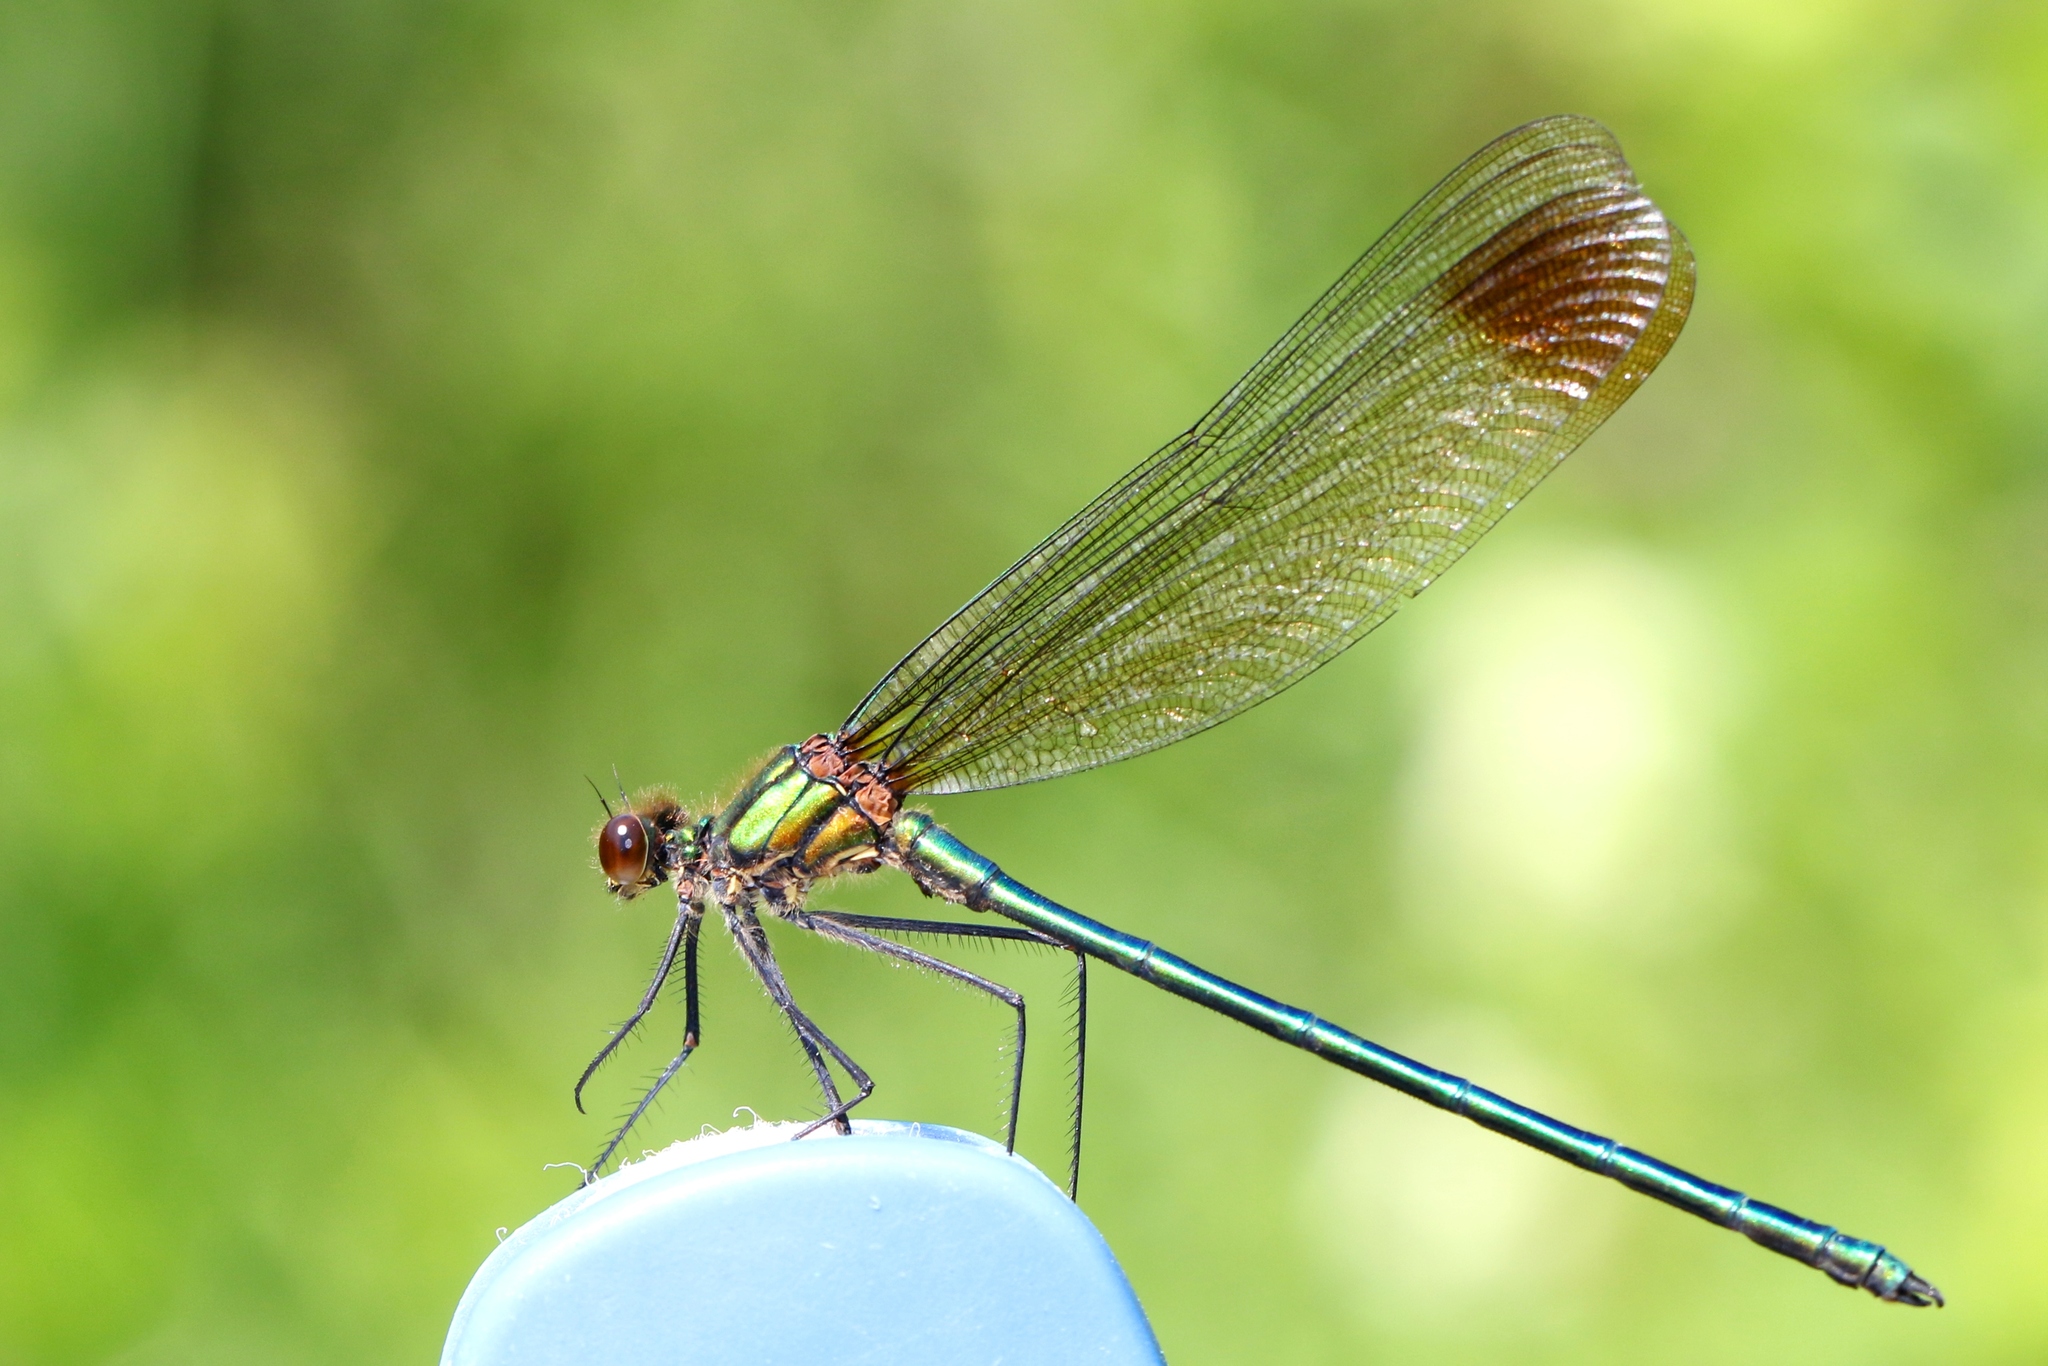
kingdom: Animalia
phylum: Arthropoda
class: Insecta
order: Odonata
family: Calopterygidae
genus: Calopteryx
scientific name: Calopteryx amata
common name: Superb jewelwing
